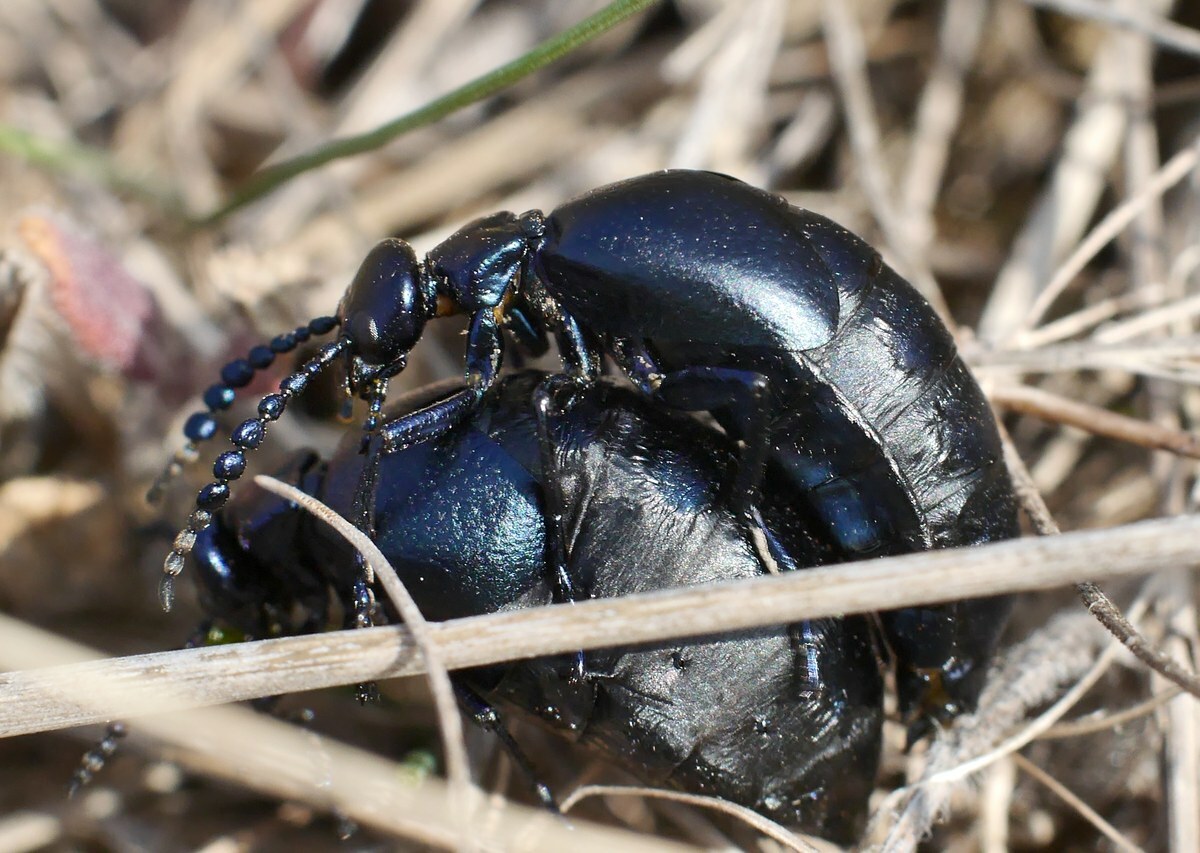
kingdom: Animalia
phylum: Arthropoda
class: Insecta
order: Coleoptera
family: Meloidae
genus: Meloe
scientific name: Meloe autumnalis
